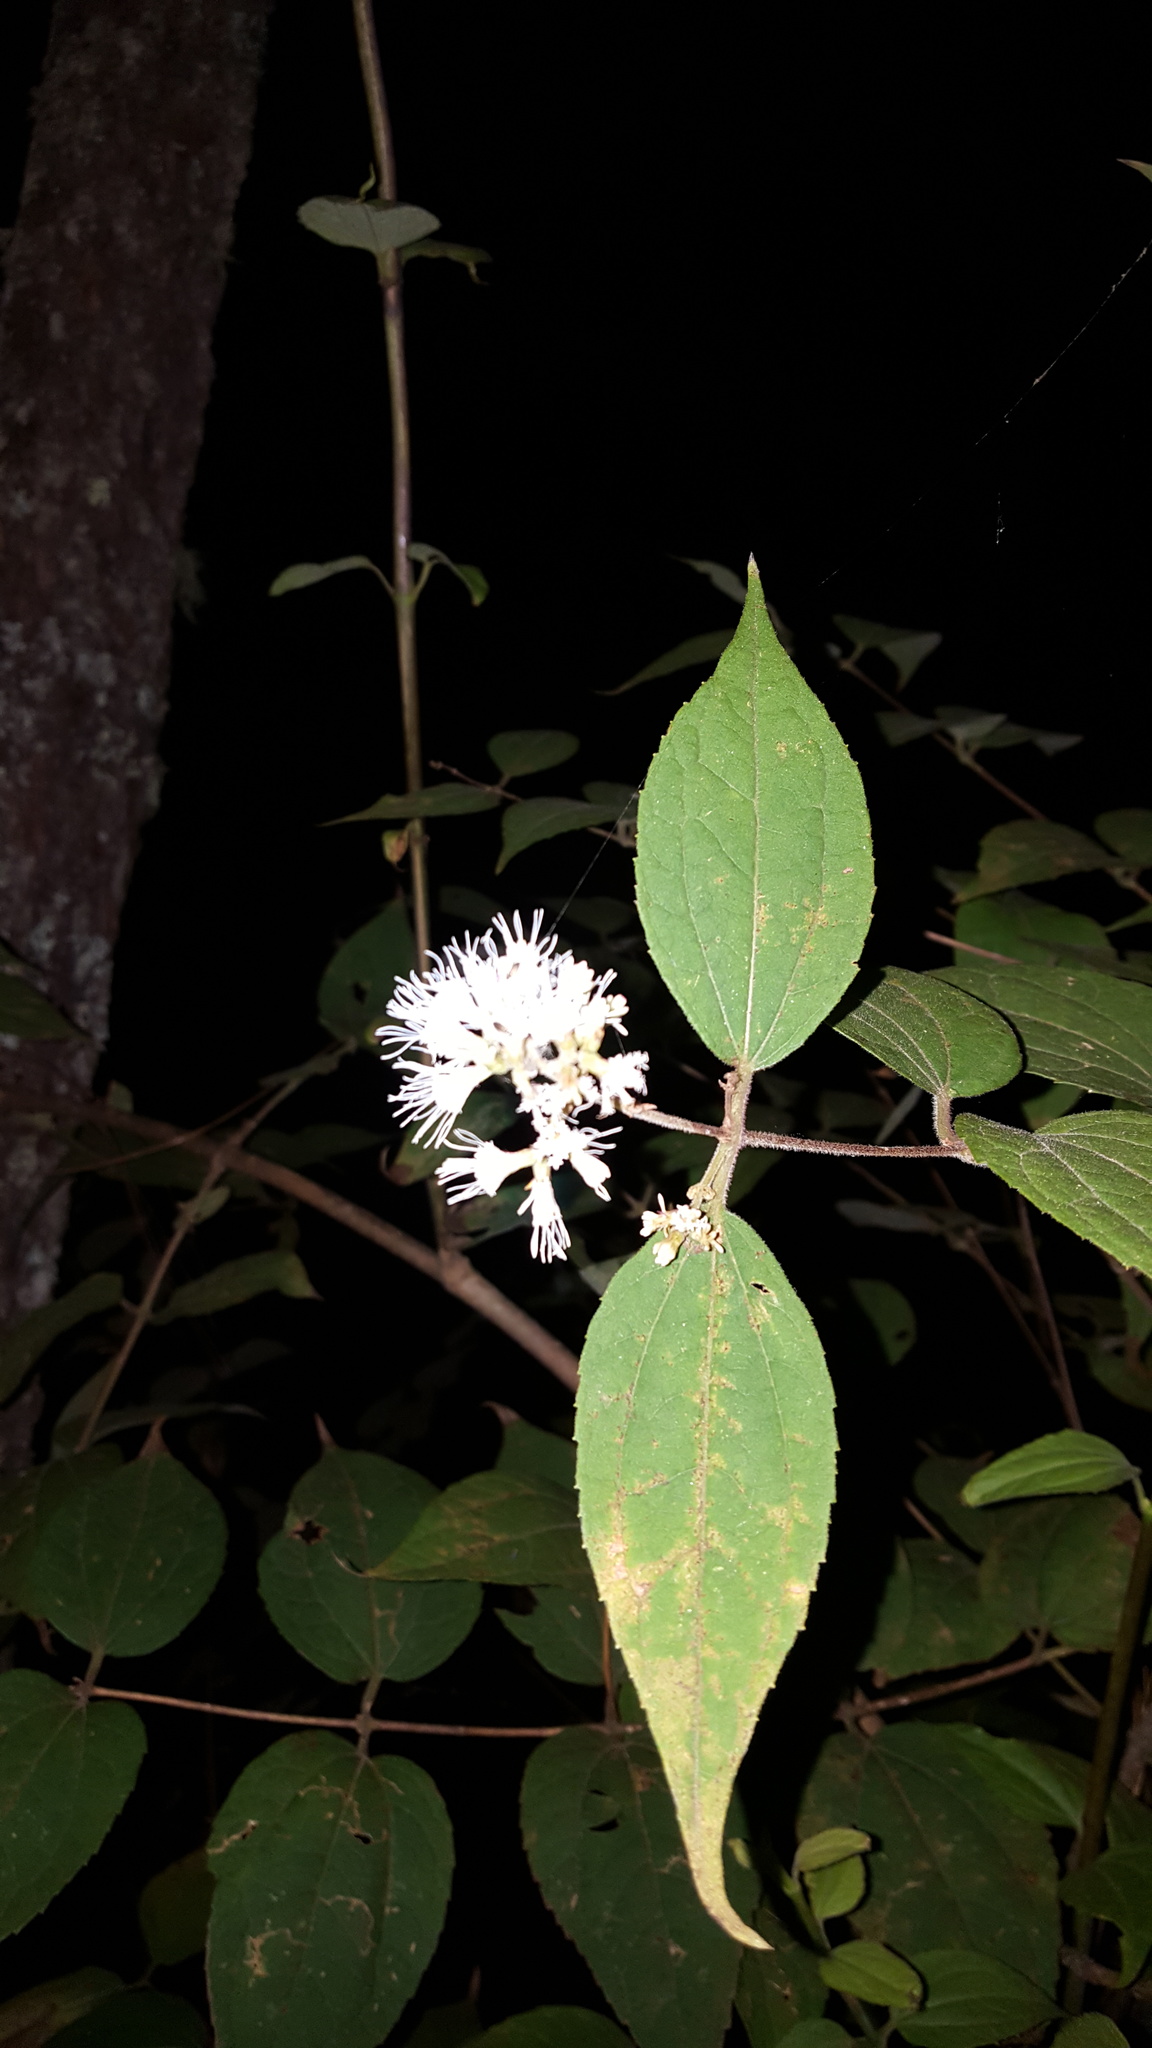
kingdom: Plantae
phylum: Tracheophyta
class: Magnoliopsida
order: Asterales
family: Asteraceae
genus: Ageratina
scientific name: Ageratina areolaris
